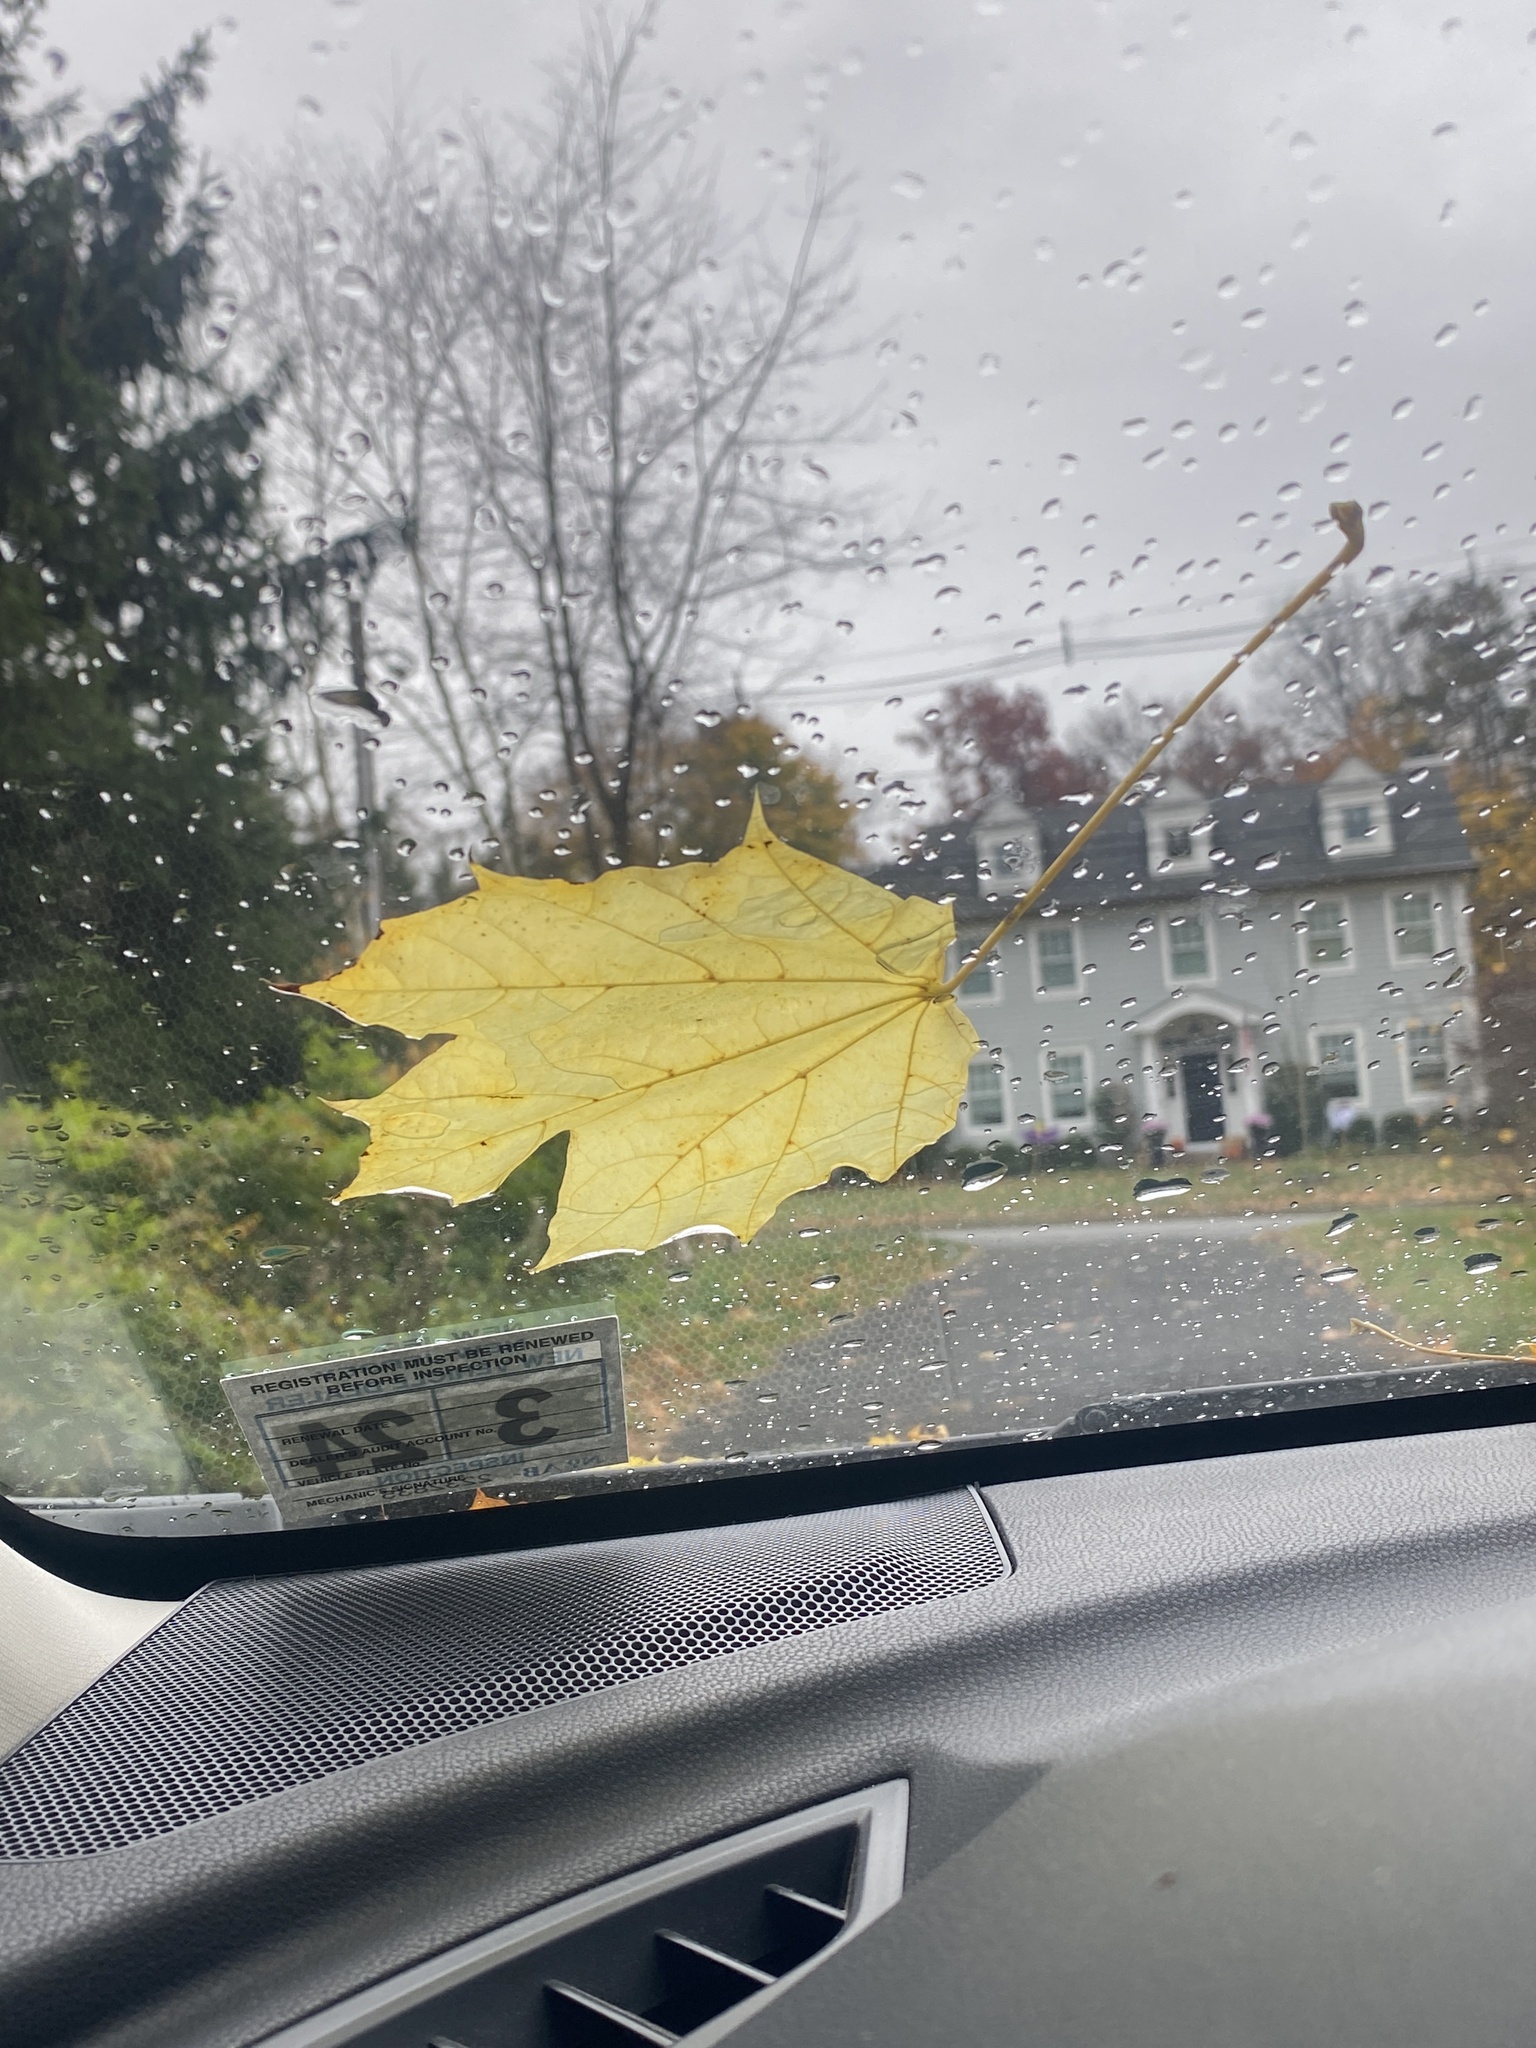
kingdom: Plantae
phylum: Tracheophyta
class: Magnoliopsida
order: Sapindales
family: Sapindaceae
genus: Acer
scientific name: Acer platanoides
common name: Norway maple
